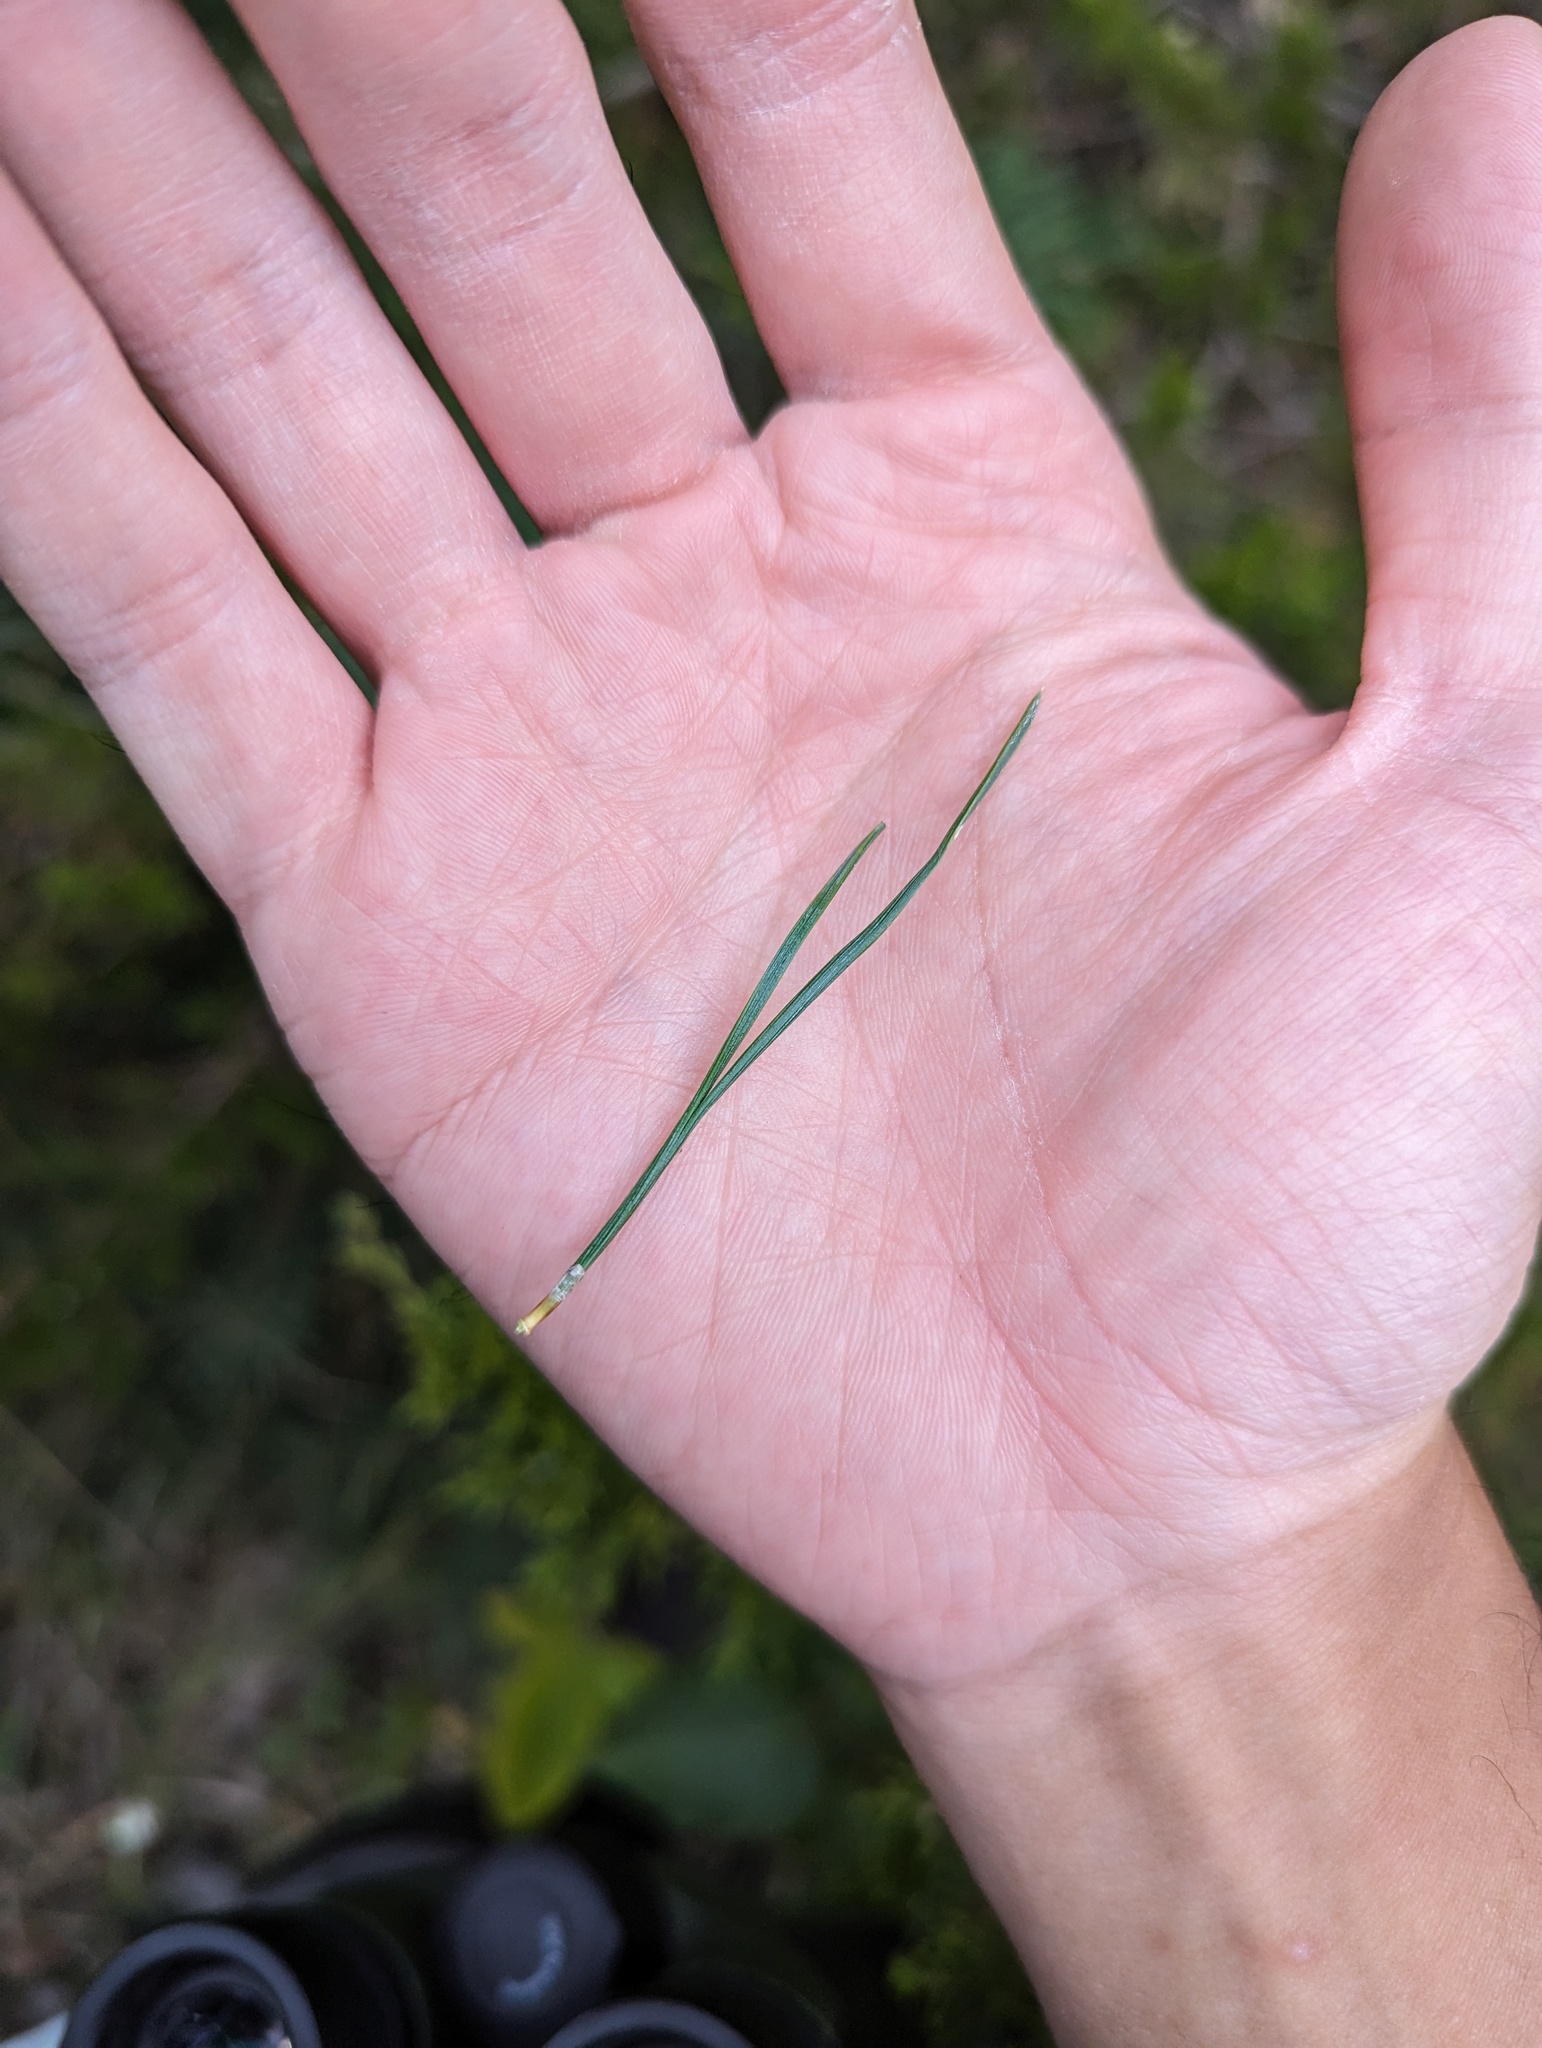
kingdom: Plantae
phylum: Tracheophyta
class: Pinopsida
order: Pinales
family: Pinaceae
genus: Pinus
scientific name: Pinus sylvestris
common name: Scots pine
